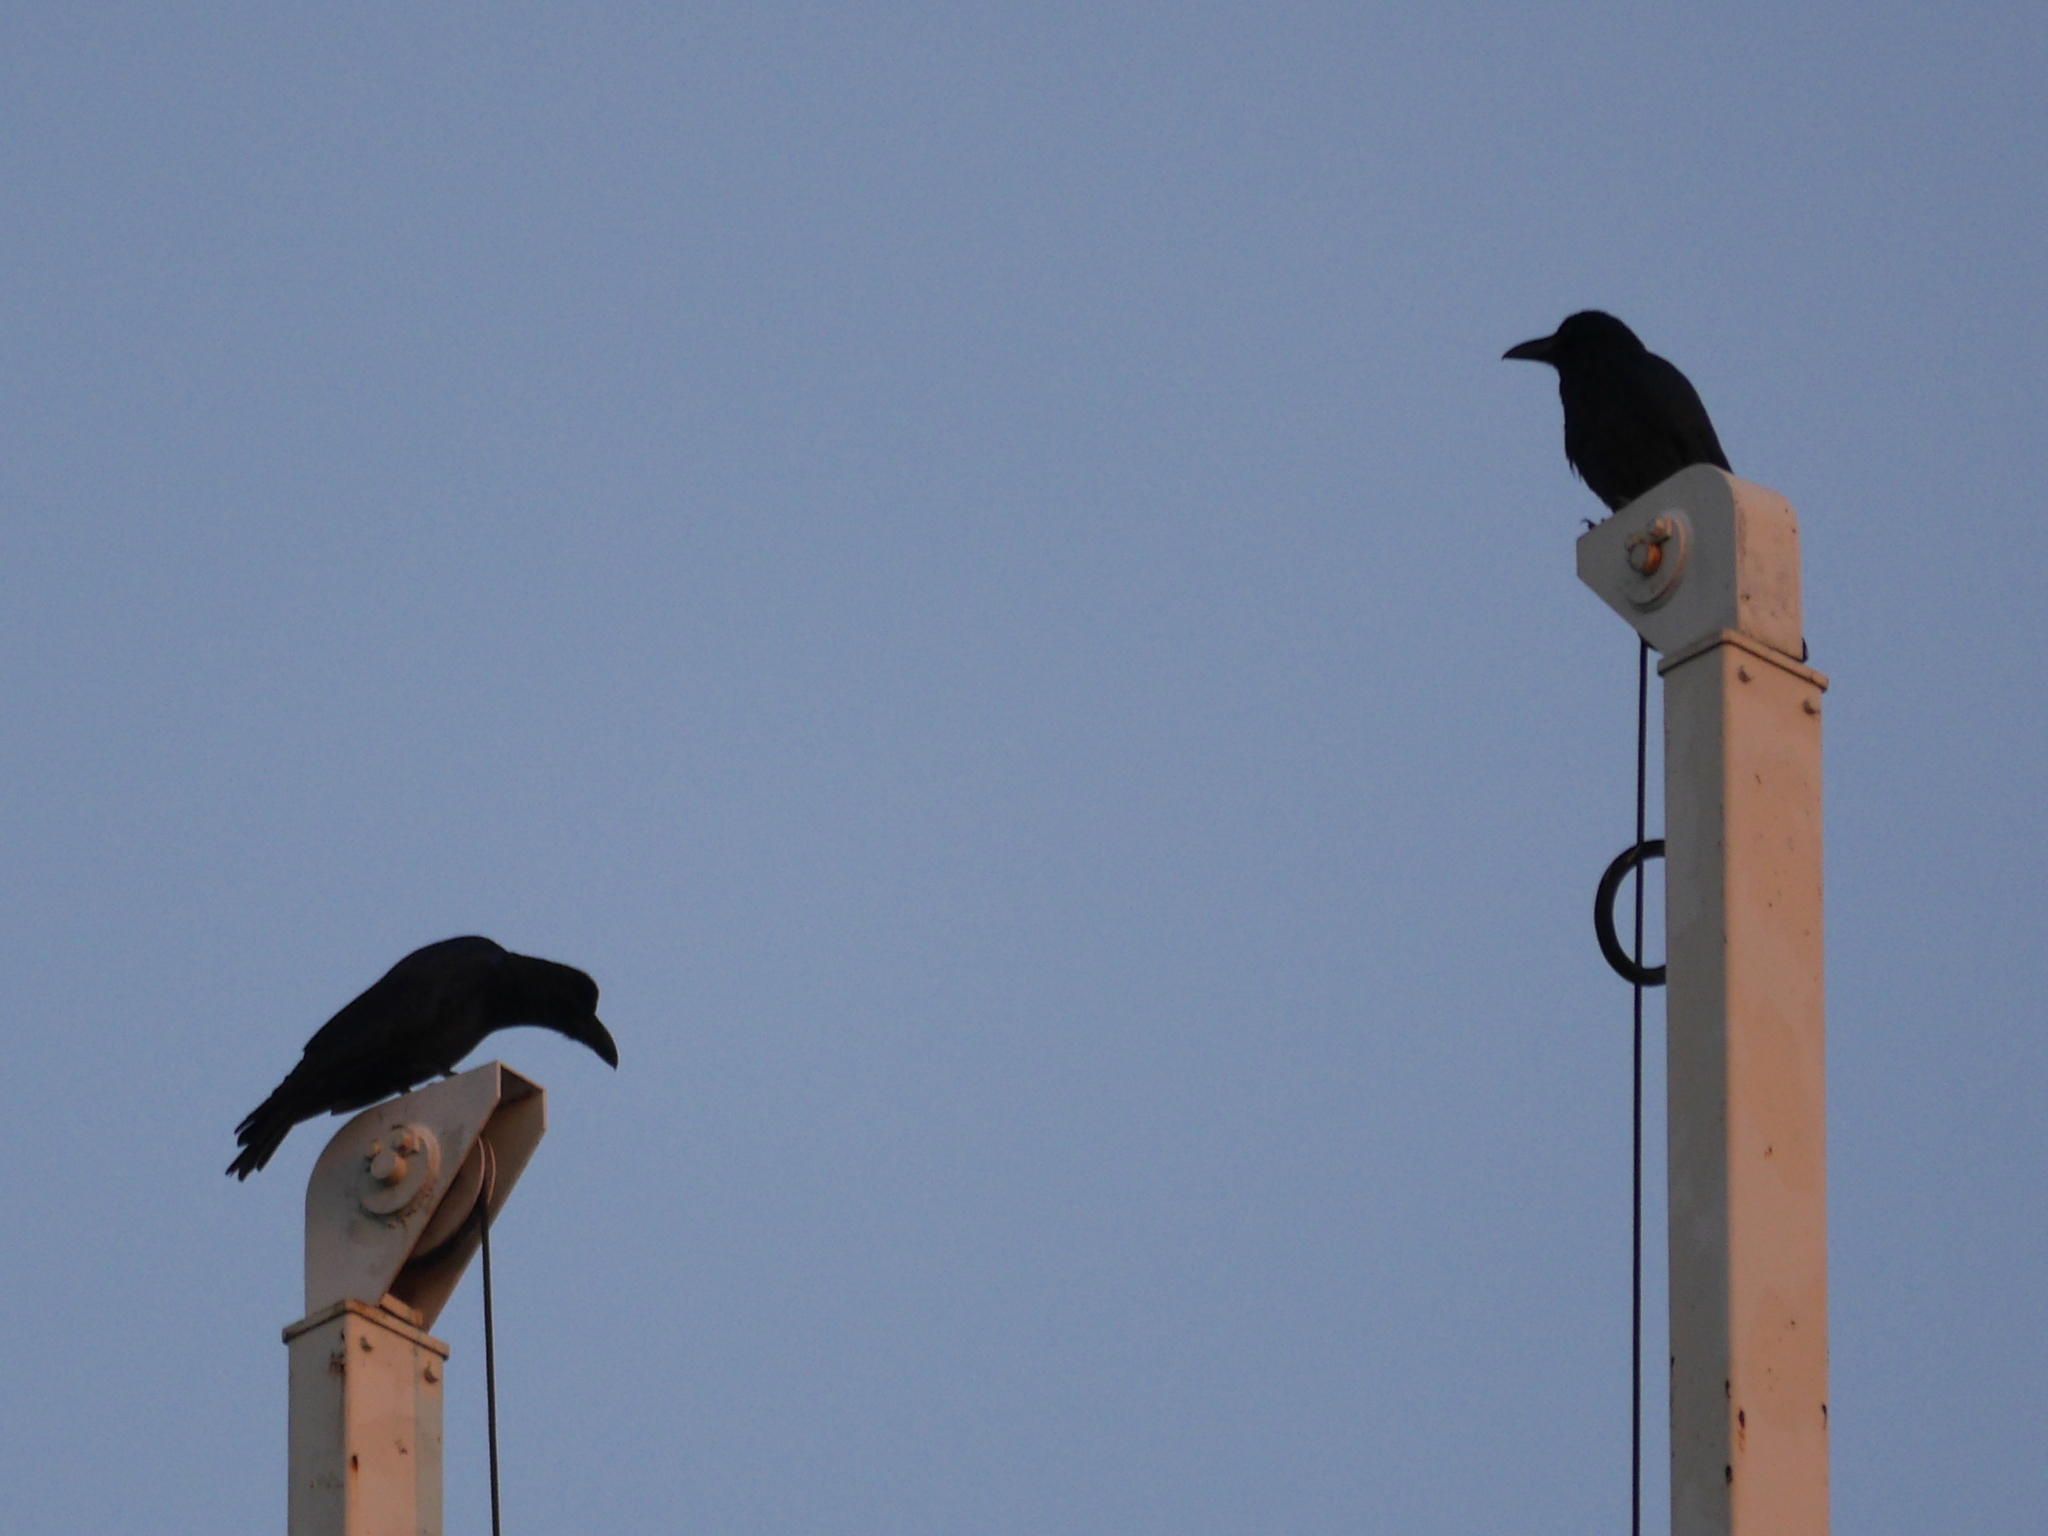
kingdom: Animalia
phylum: Chordata
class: Aves
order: Passeriformes
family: Corvidae
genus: Corvus
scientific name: Corvus macrorhynchos
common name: Large-billed crow
